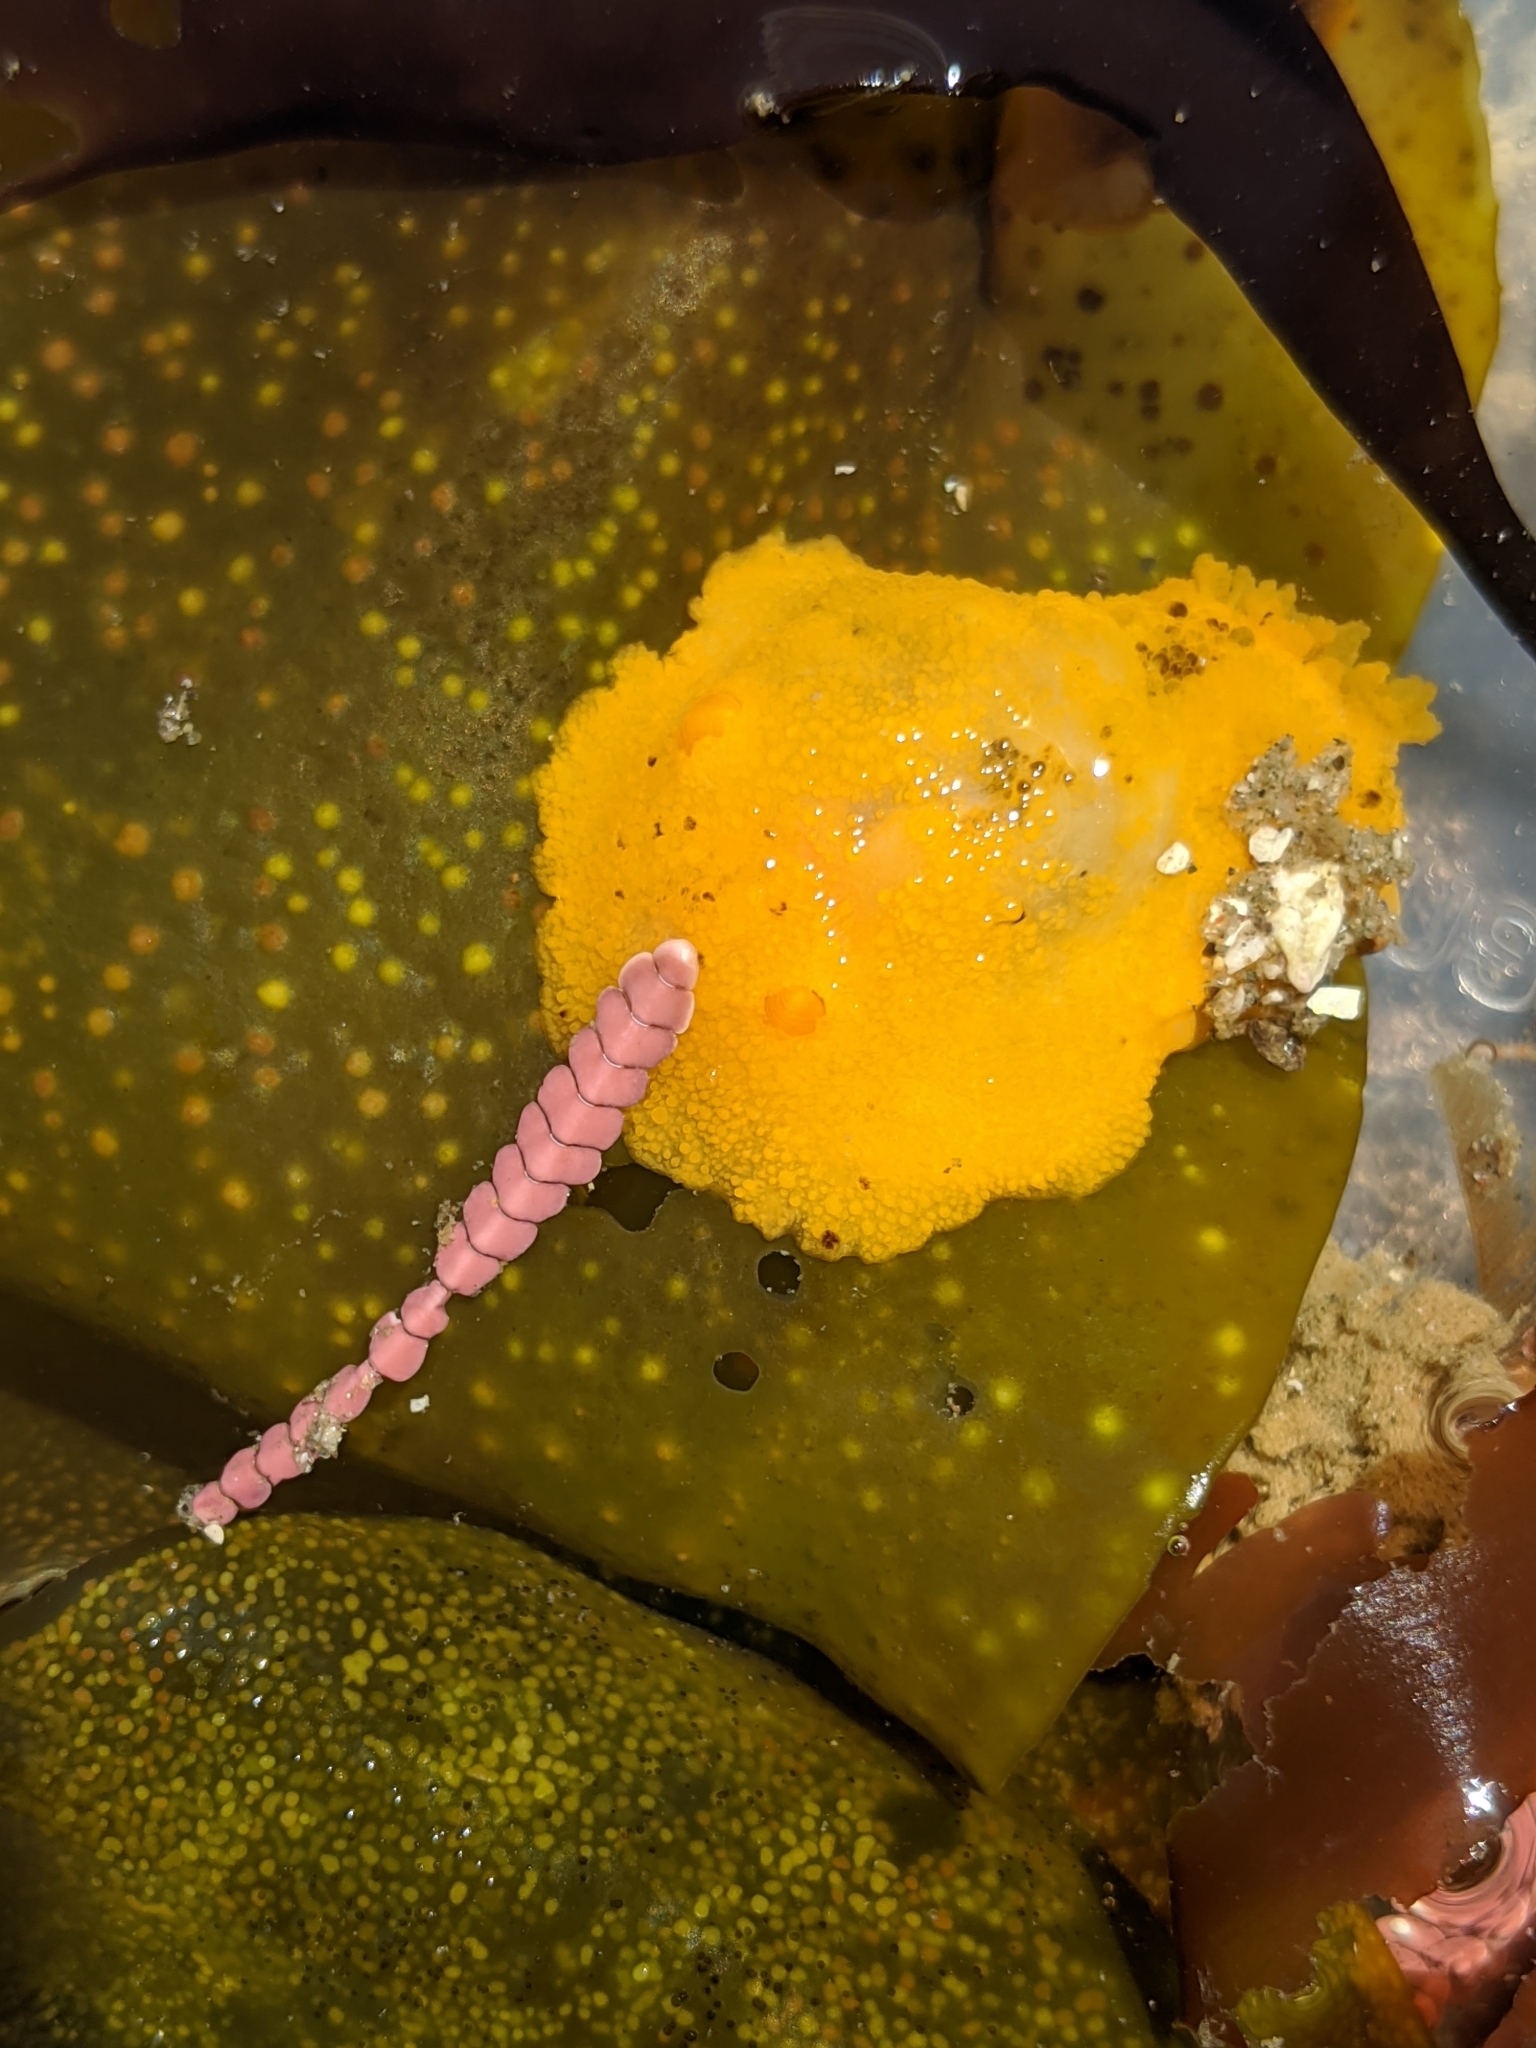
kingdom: Animalia
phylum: Mollusca
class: Gastropoda
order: Nudibranchia
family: Dorididae
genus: Doris
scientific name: Doris montereyensis
